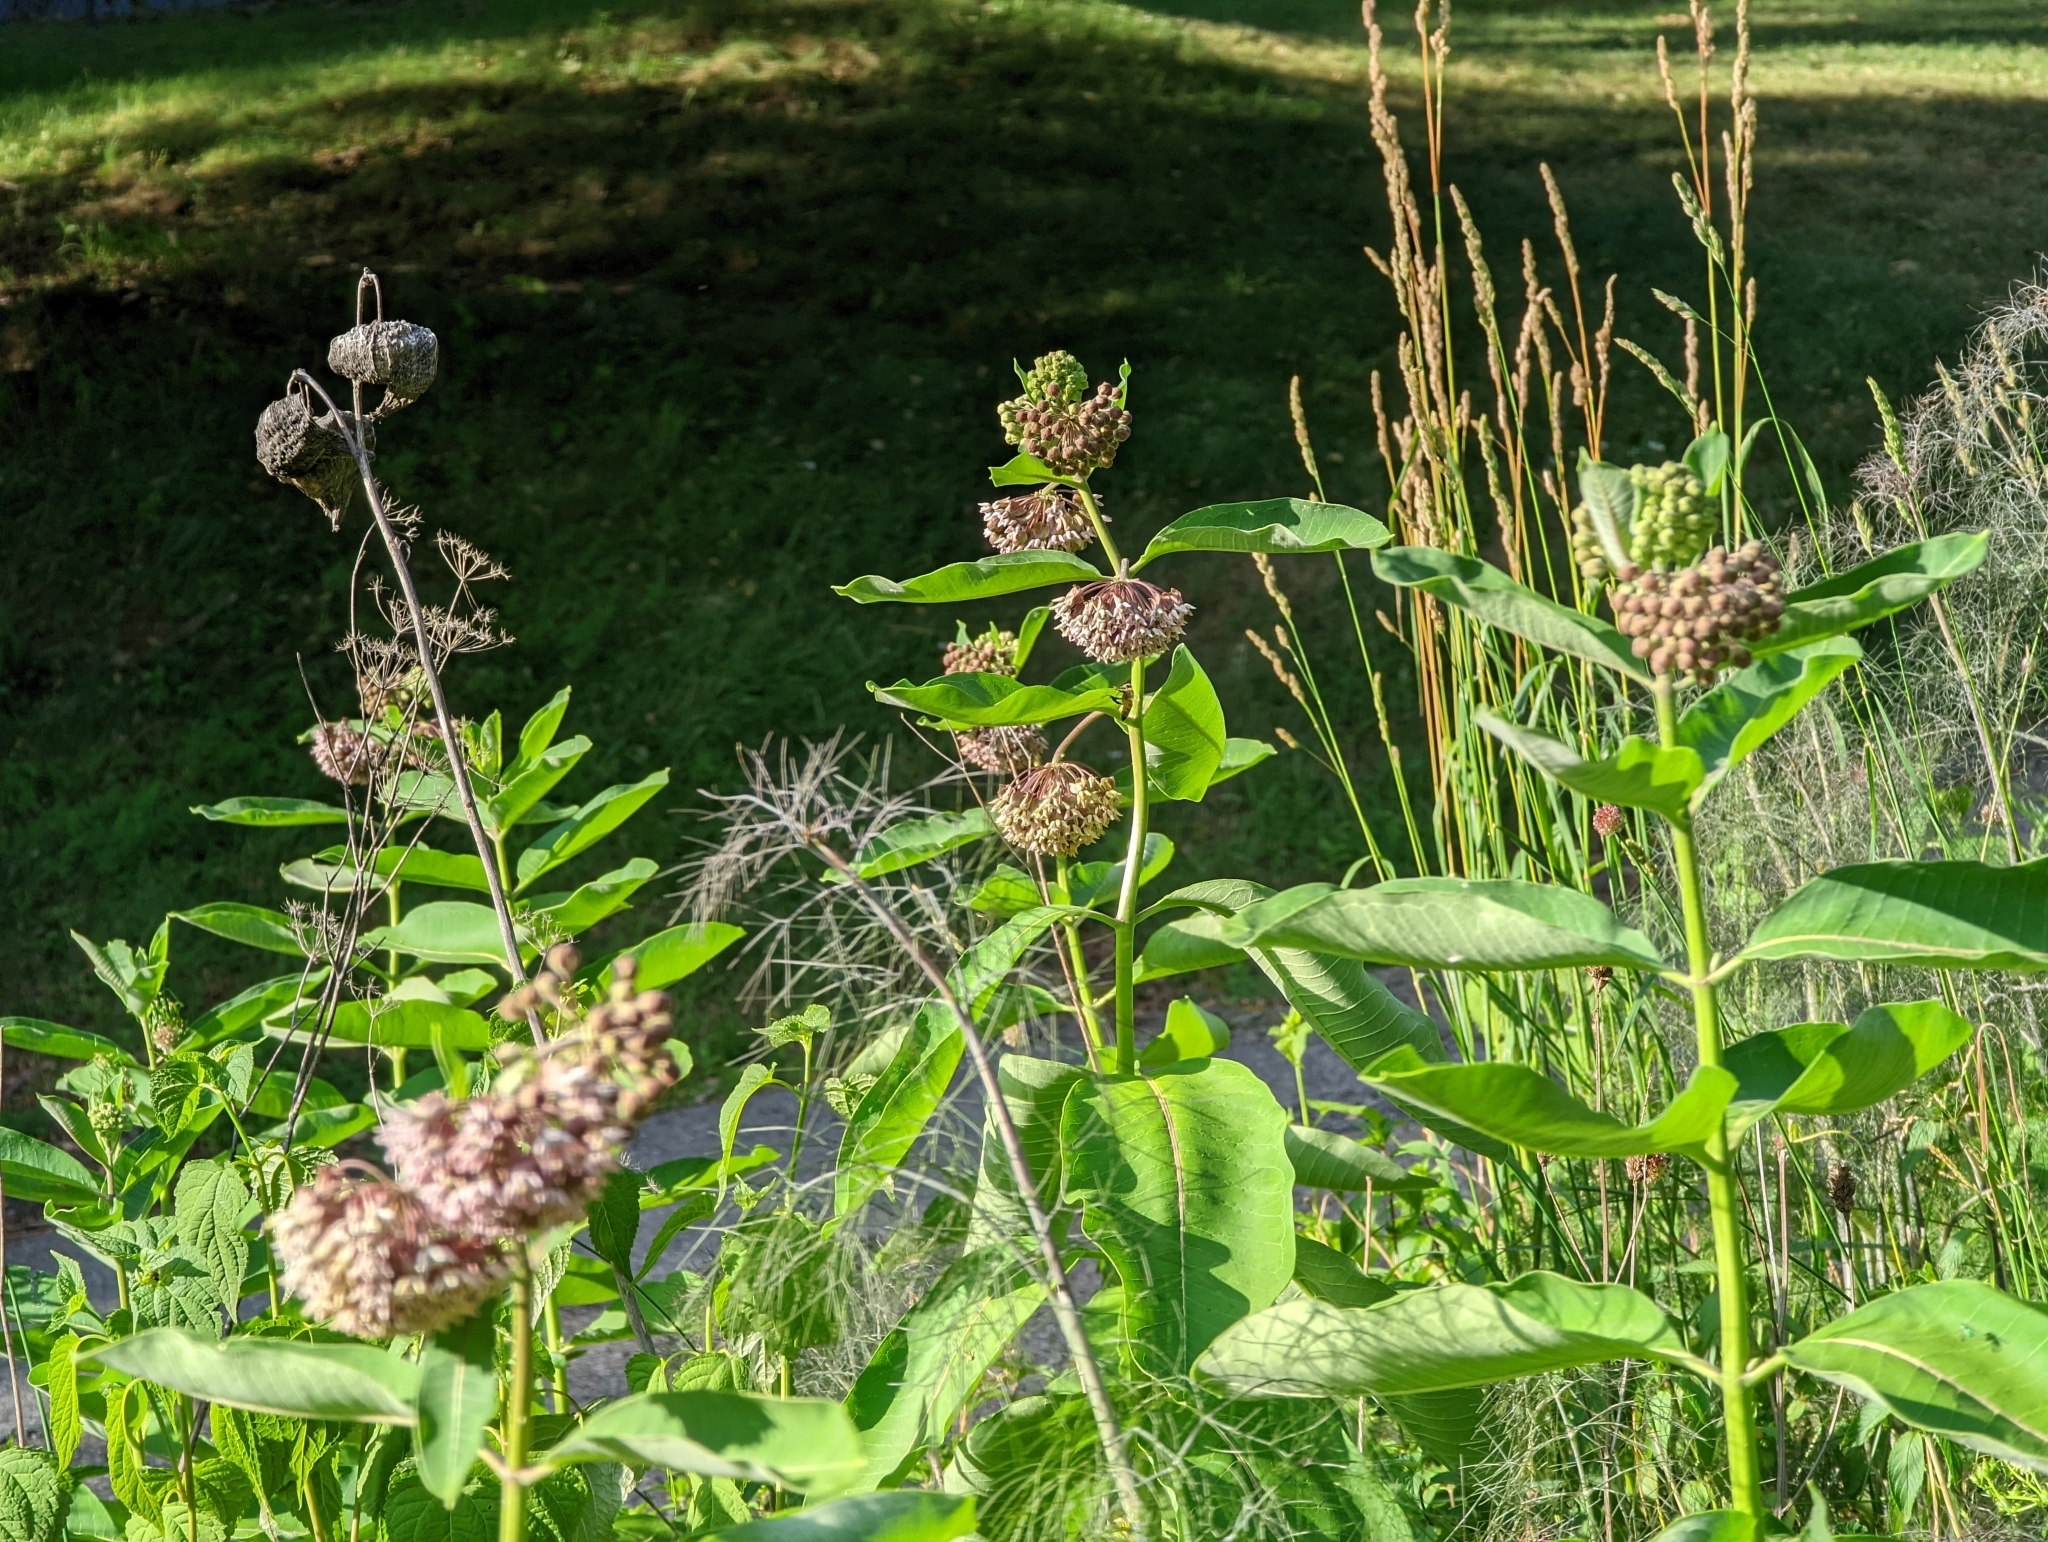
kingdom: Plantae
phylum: Tracheophyta
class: Magnoliopsida
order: Gentianales
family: Apocynaceae
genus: Asclepias
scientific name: Asclepias syriaca
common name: Common milkweed
